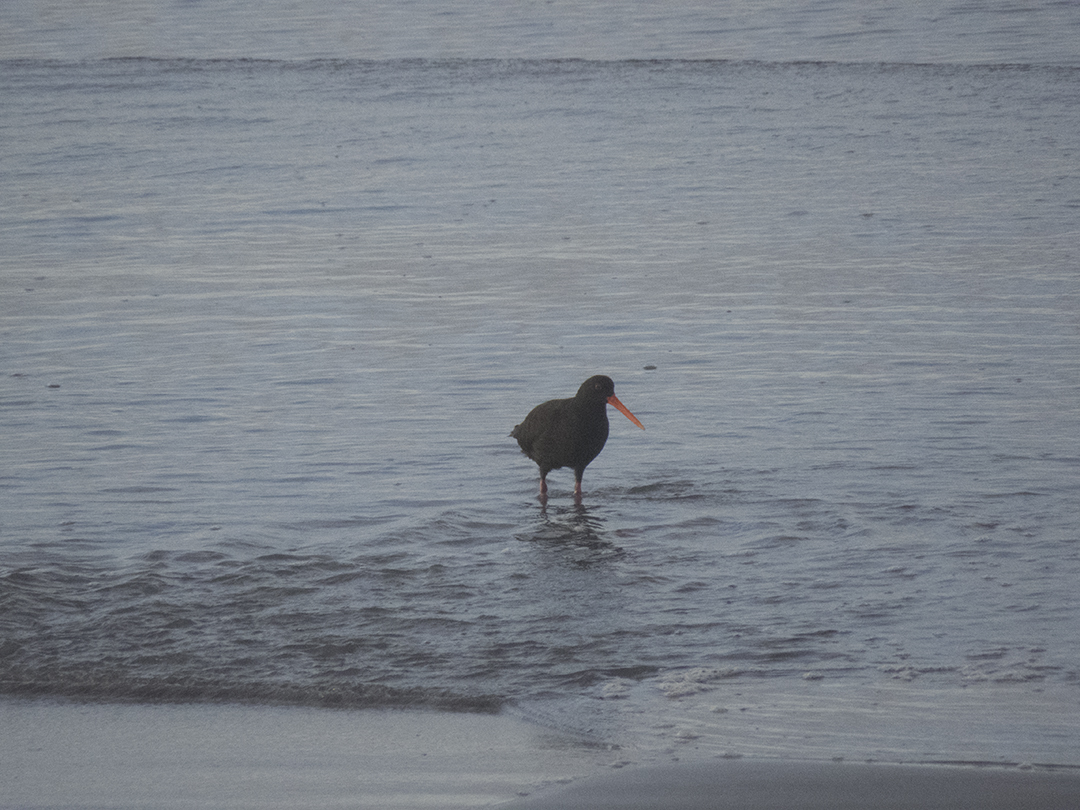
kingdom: Animalia
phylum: Chordata
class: Aves
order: Charadriiformes
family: Haematopodidae
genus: Haematopus
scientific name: Haematopus unicolor
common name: Variable oystercatcher
